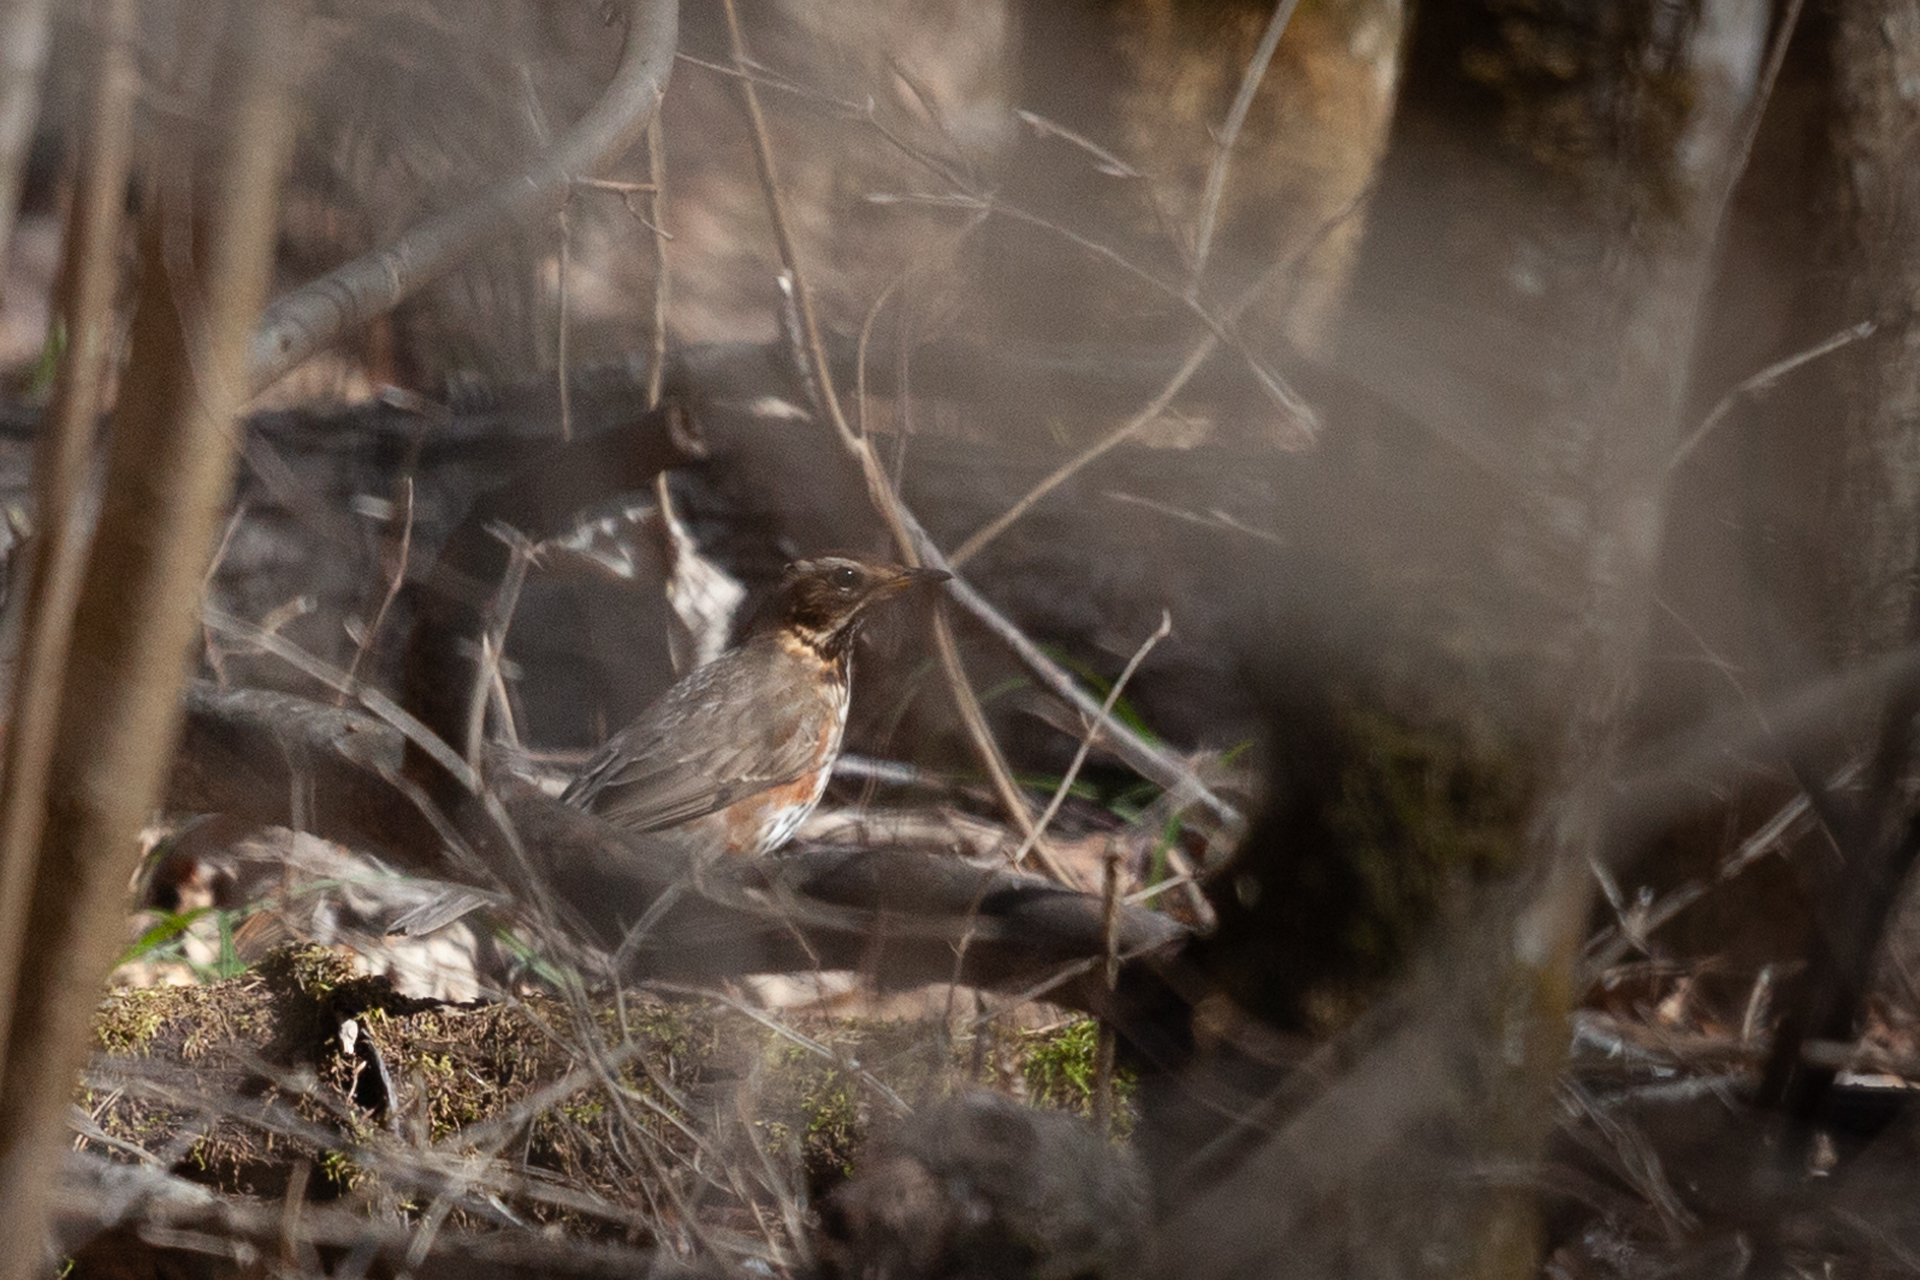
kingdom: Animalia
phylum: Chordata
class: Aves
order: Passeriformes
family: Turdidae
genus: Turdus
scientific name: Turdus iliacus
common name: Redwing
